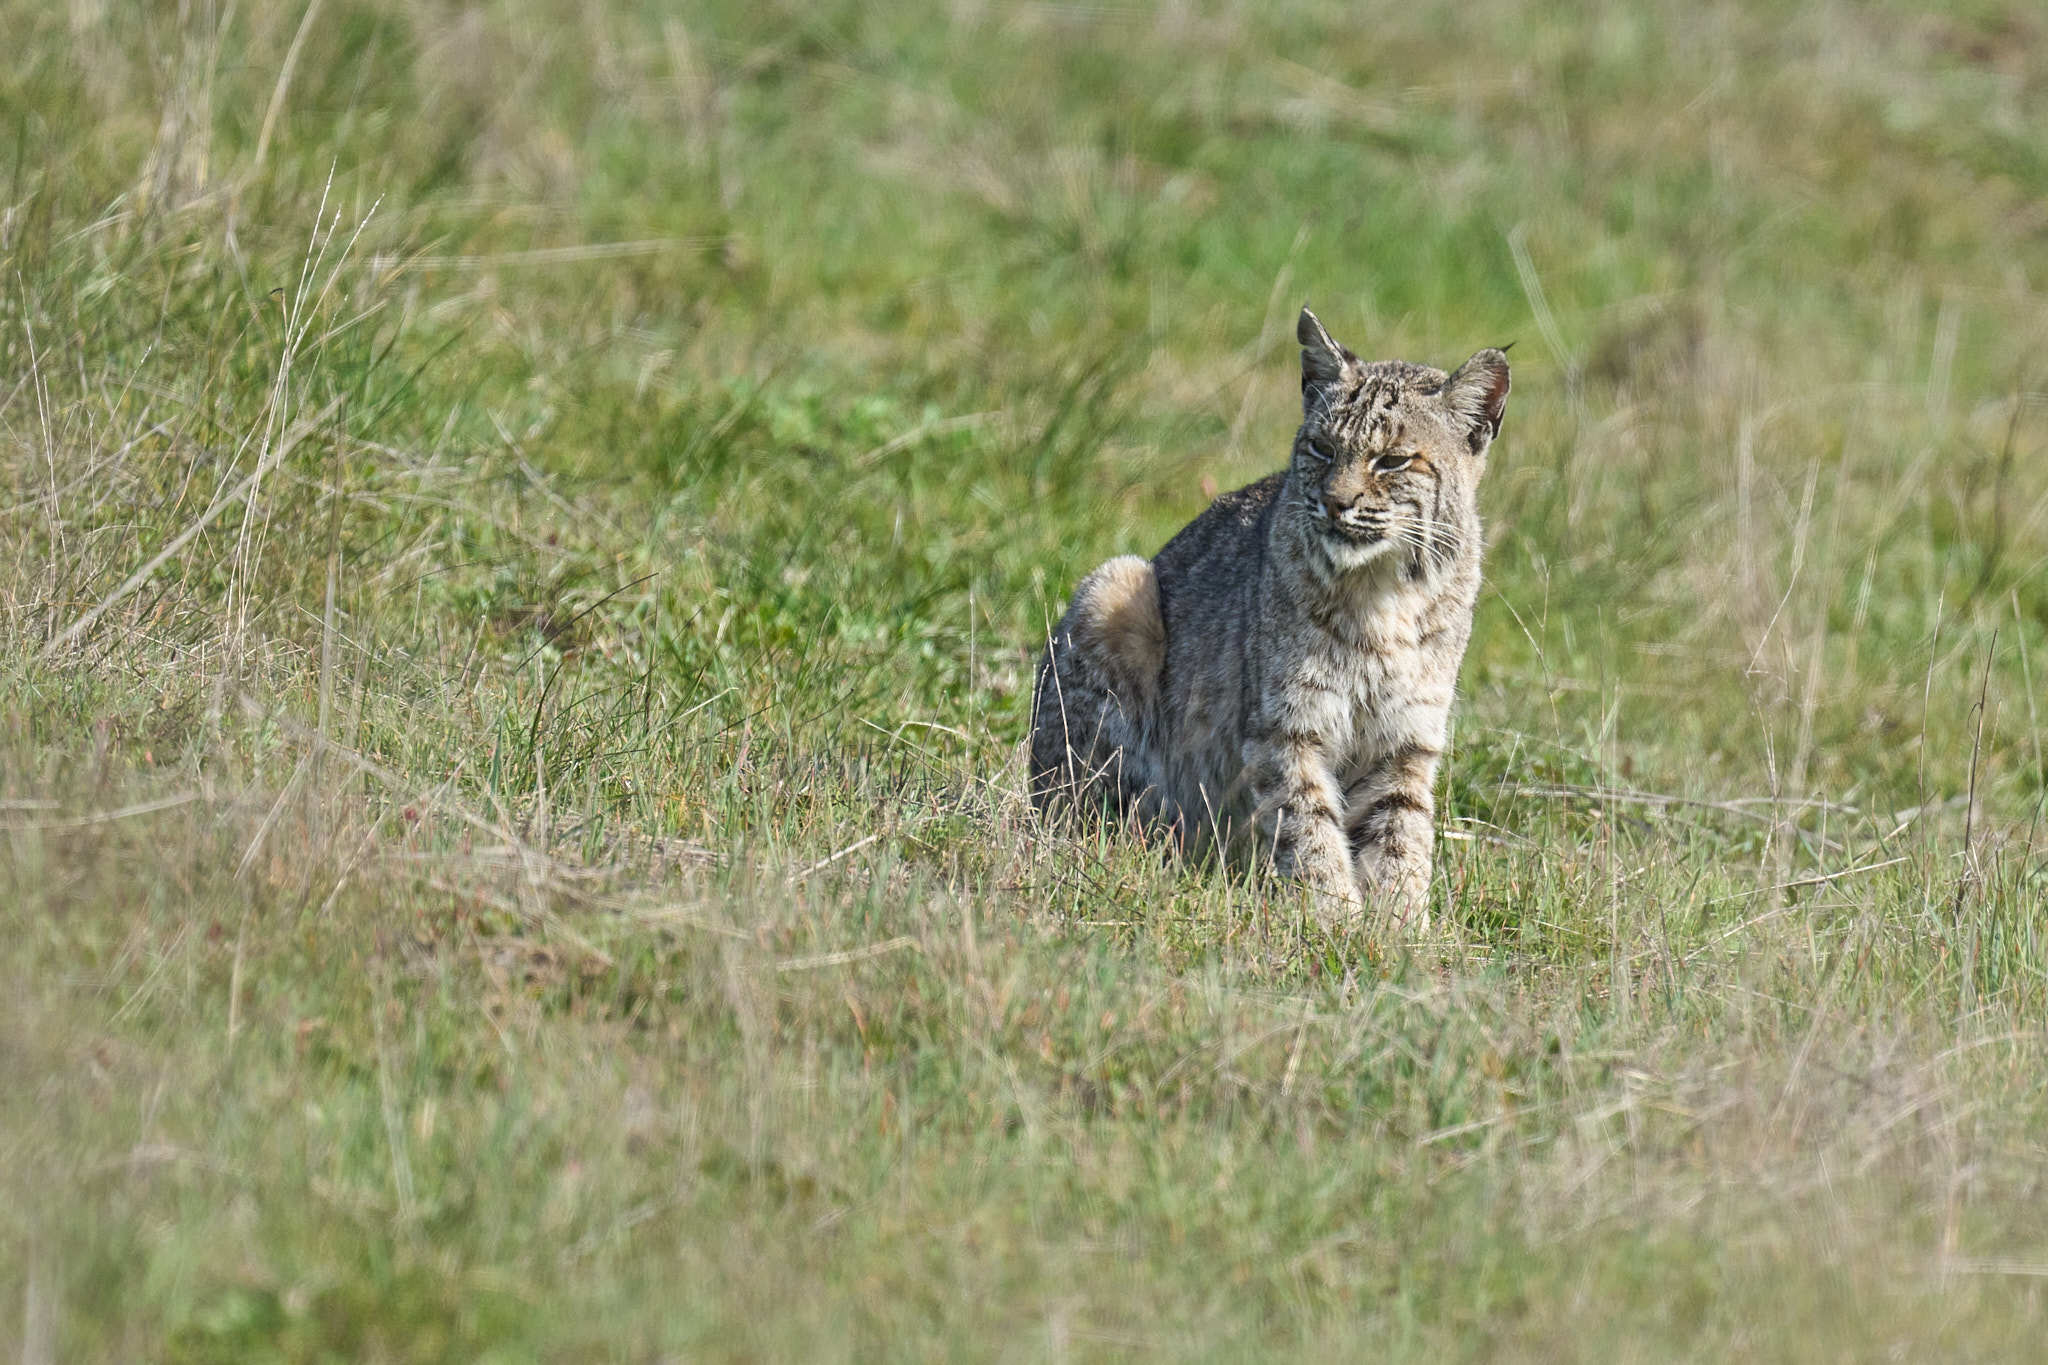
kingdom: Animalia
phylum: Chordata
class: Mammalia
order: Carnivora
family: Felidae
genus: Lynx
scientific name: Lynx rufus
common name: Bobcat
